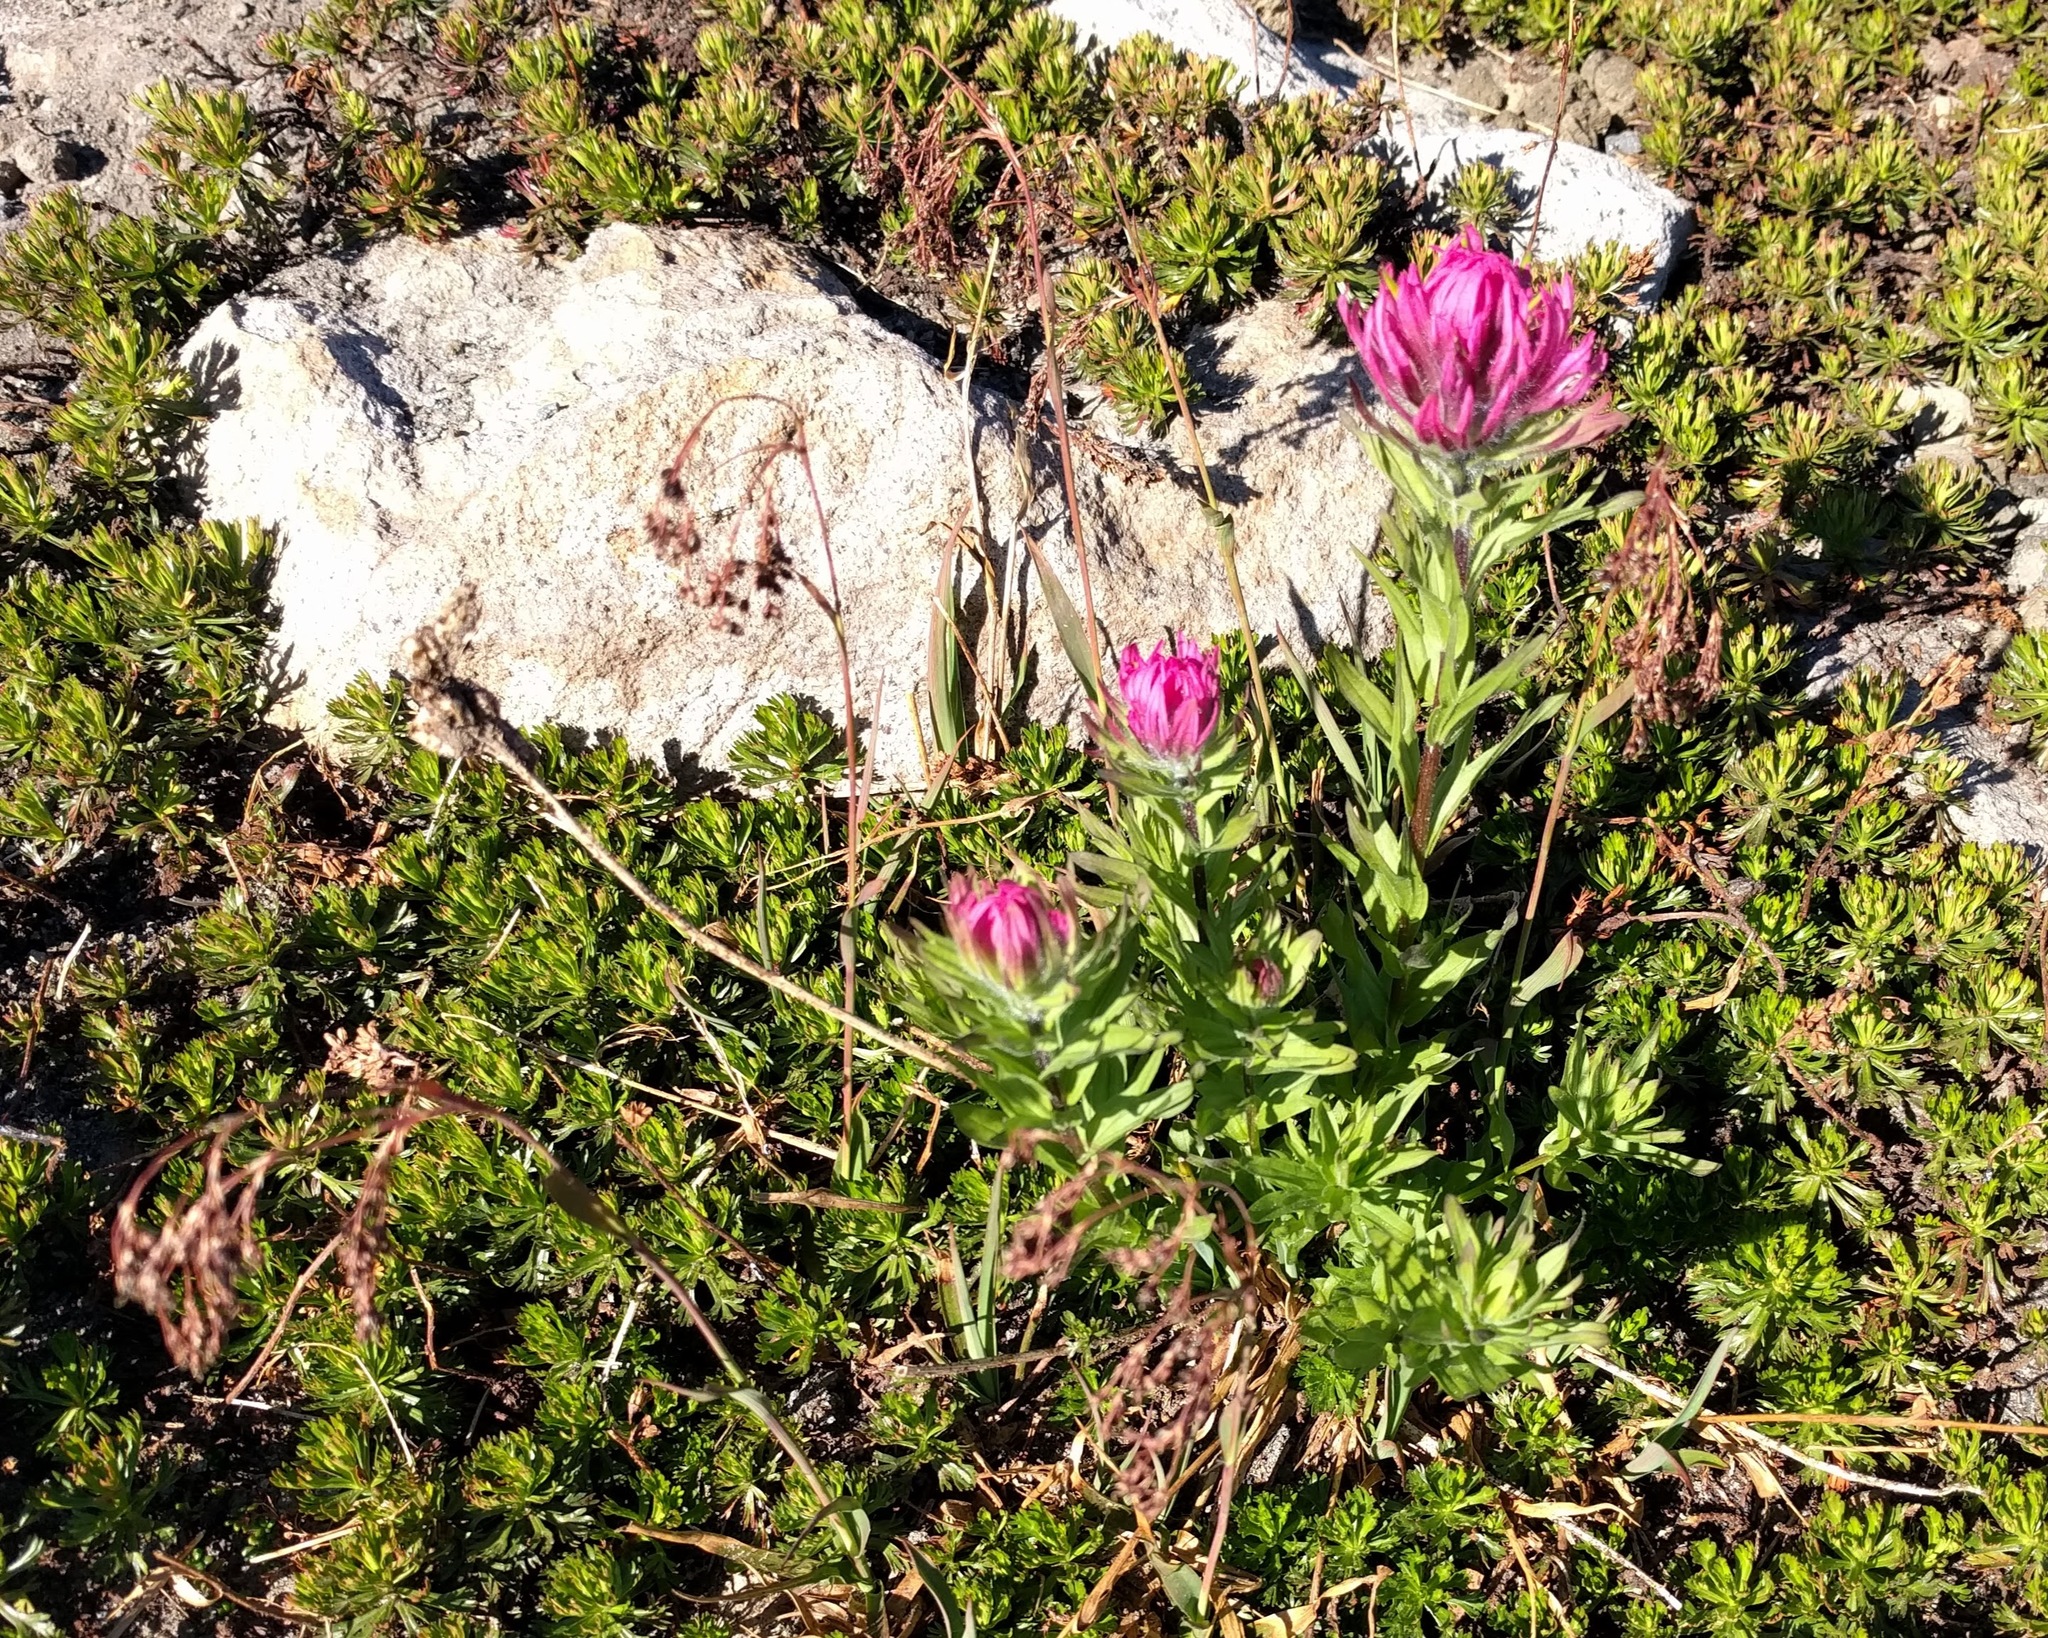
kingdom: Plantae
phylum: Tracheophyta
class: Magnoliopsida
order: Lamiales
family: Orobanchaceae
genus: Castilleja
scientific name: Castilleja parviflora
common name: Mountain paintbrush
